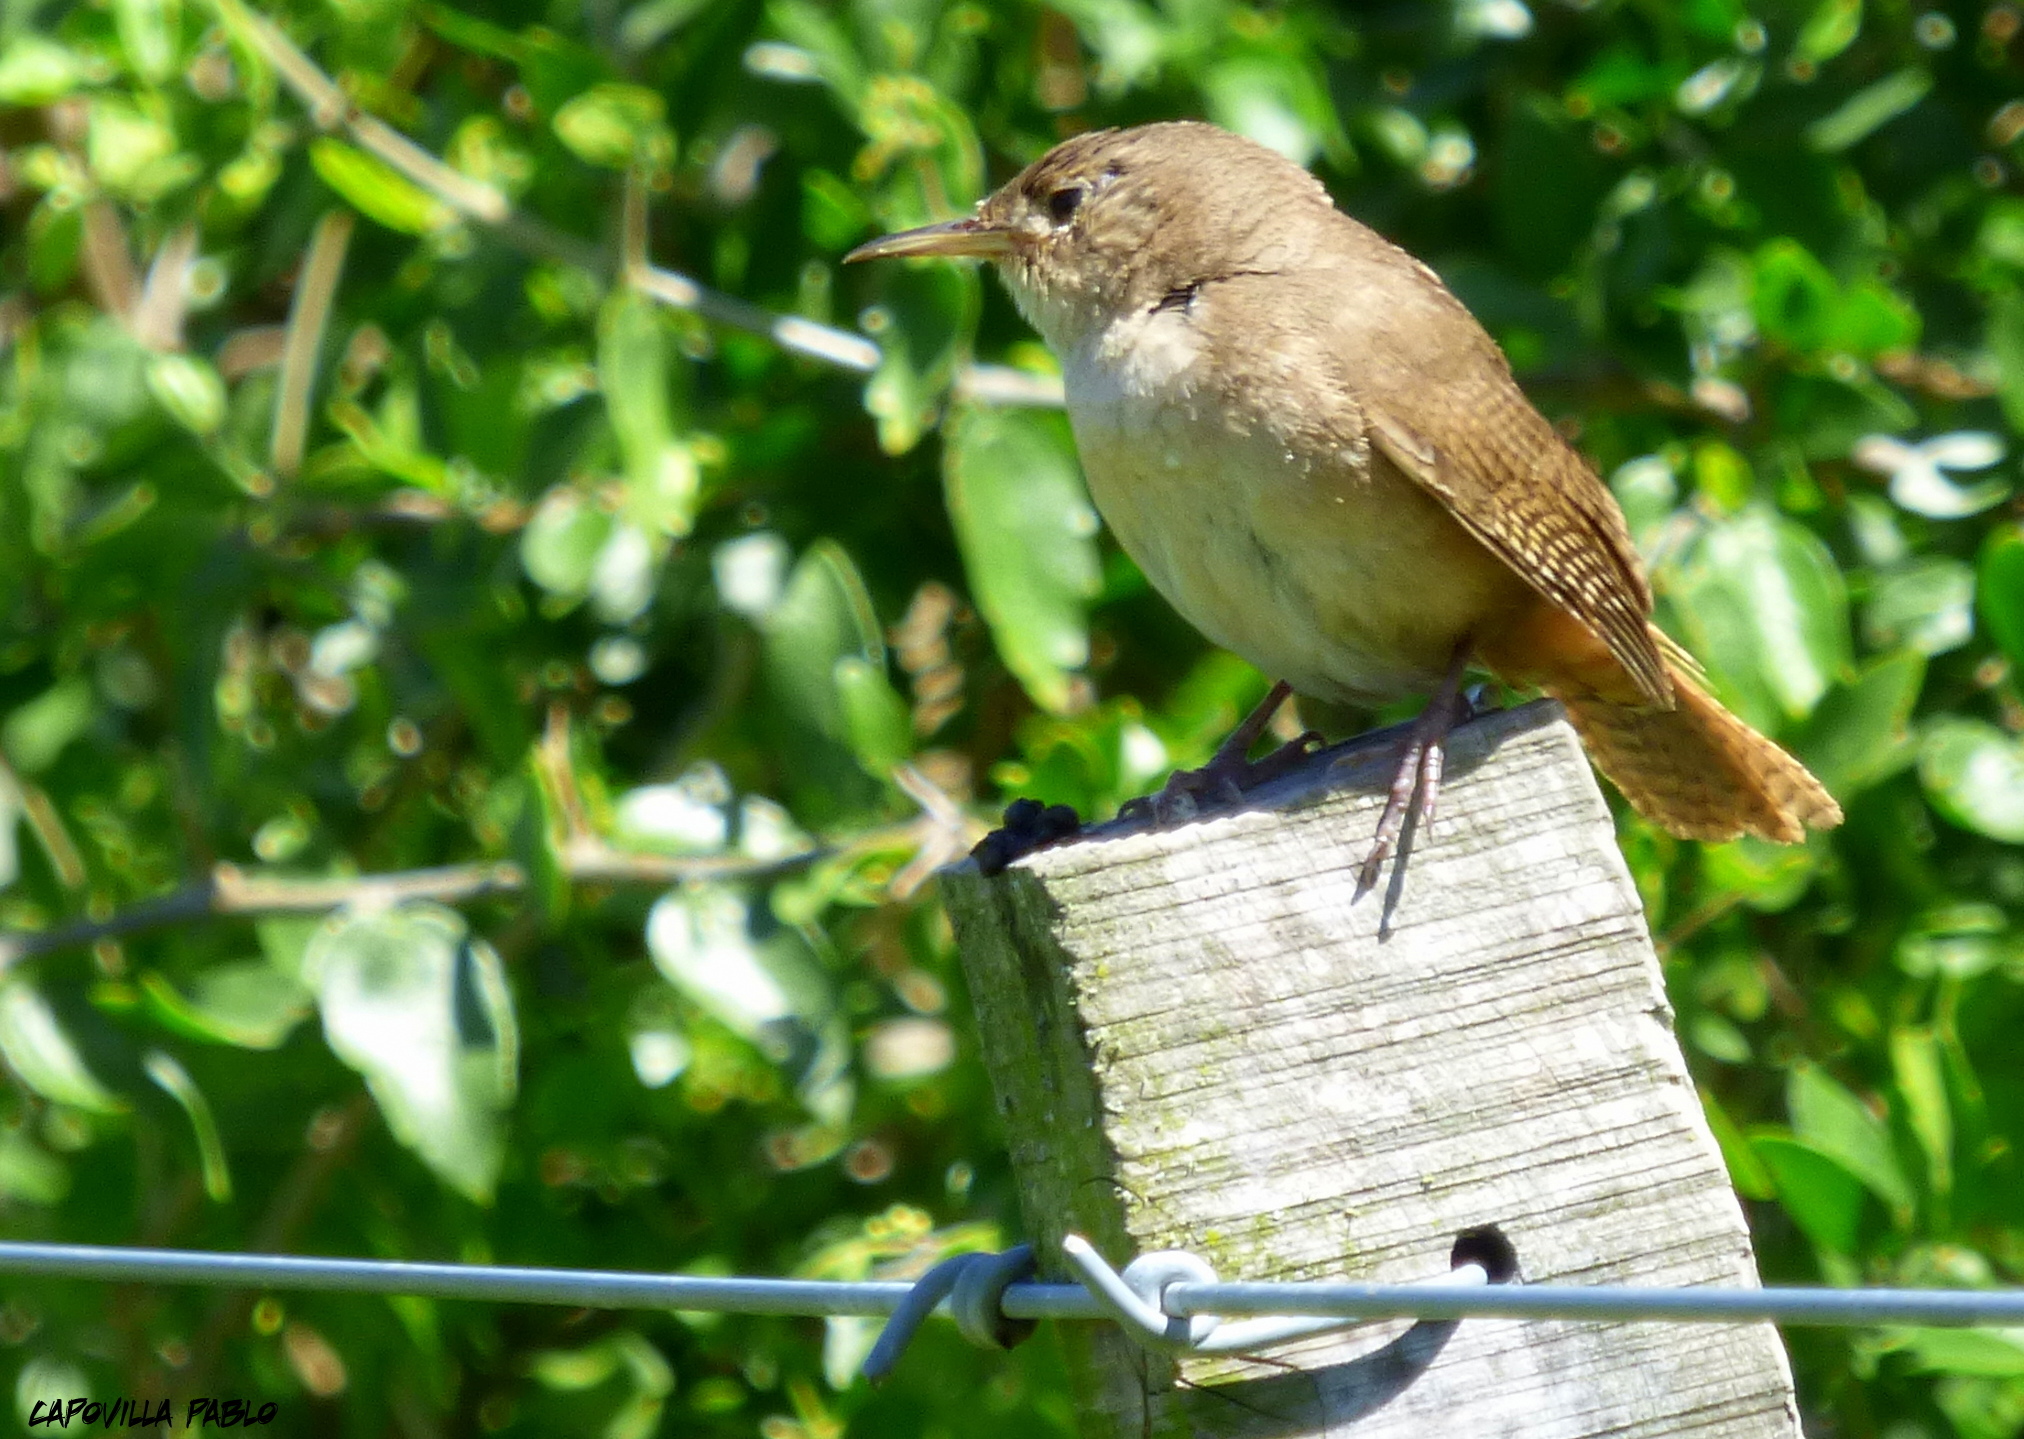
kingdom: Animalia
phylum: Chordata
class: Aves
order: Passeriformes
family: Troglodytidae
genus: Troglodytes
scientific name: Troglodytes aedon
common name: House wren
